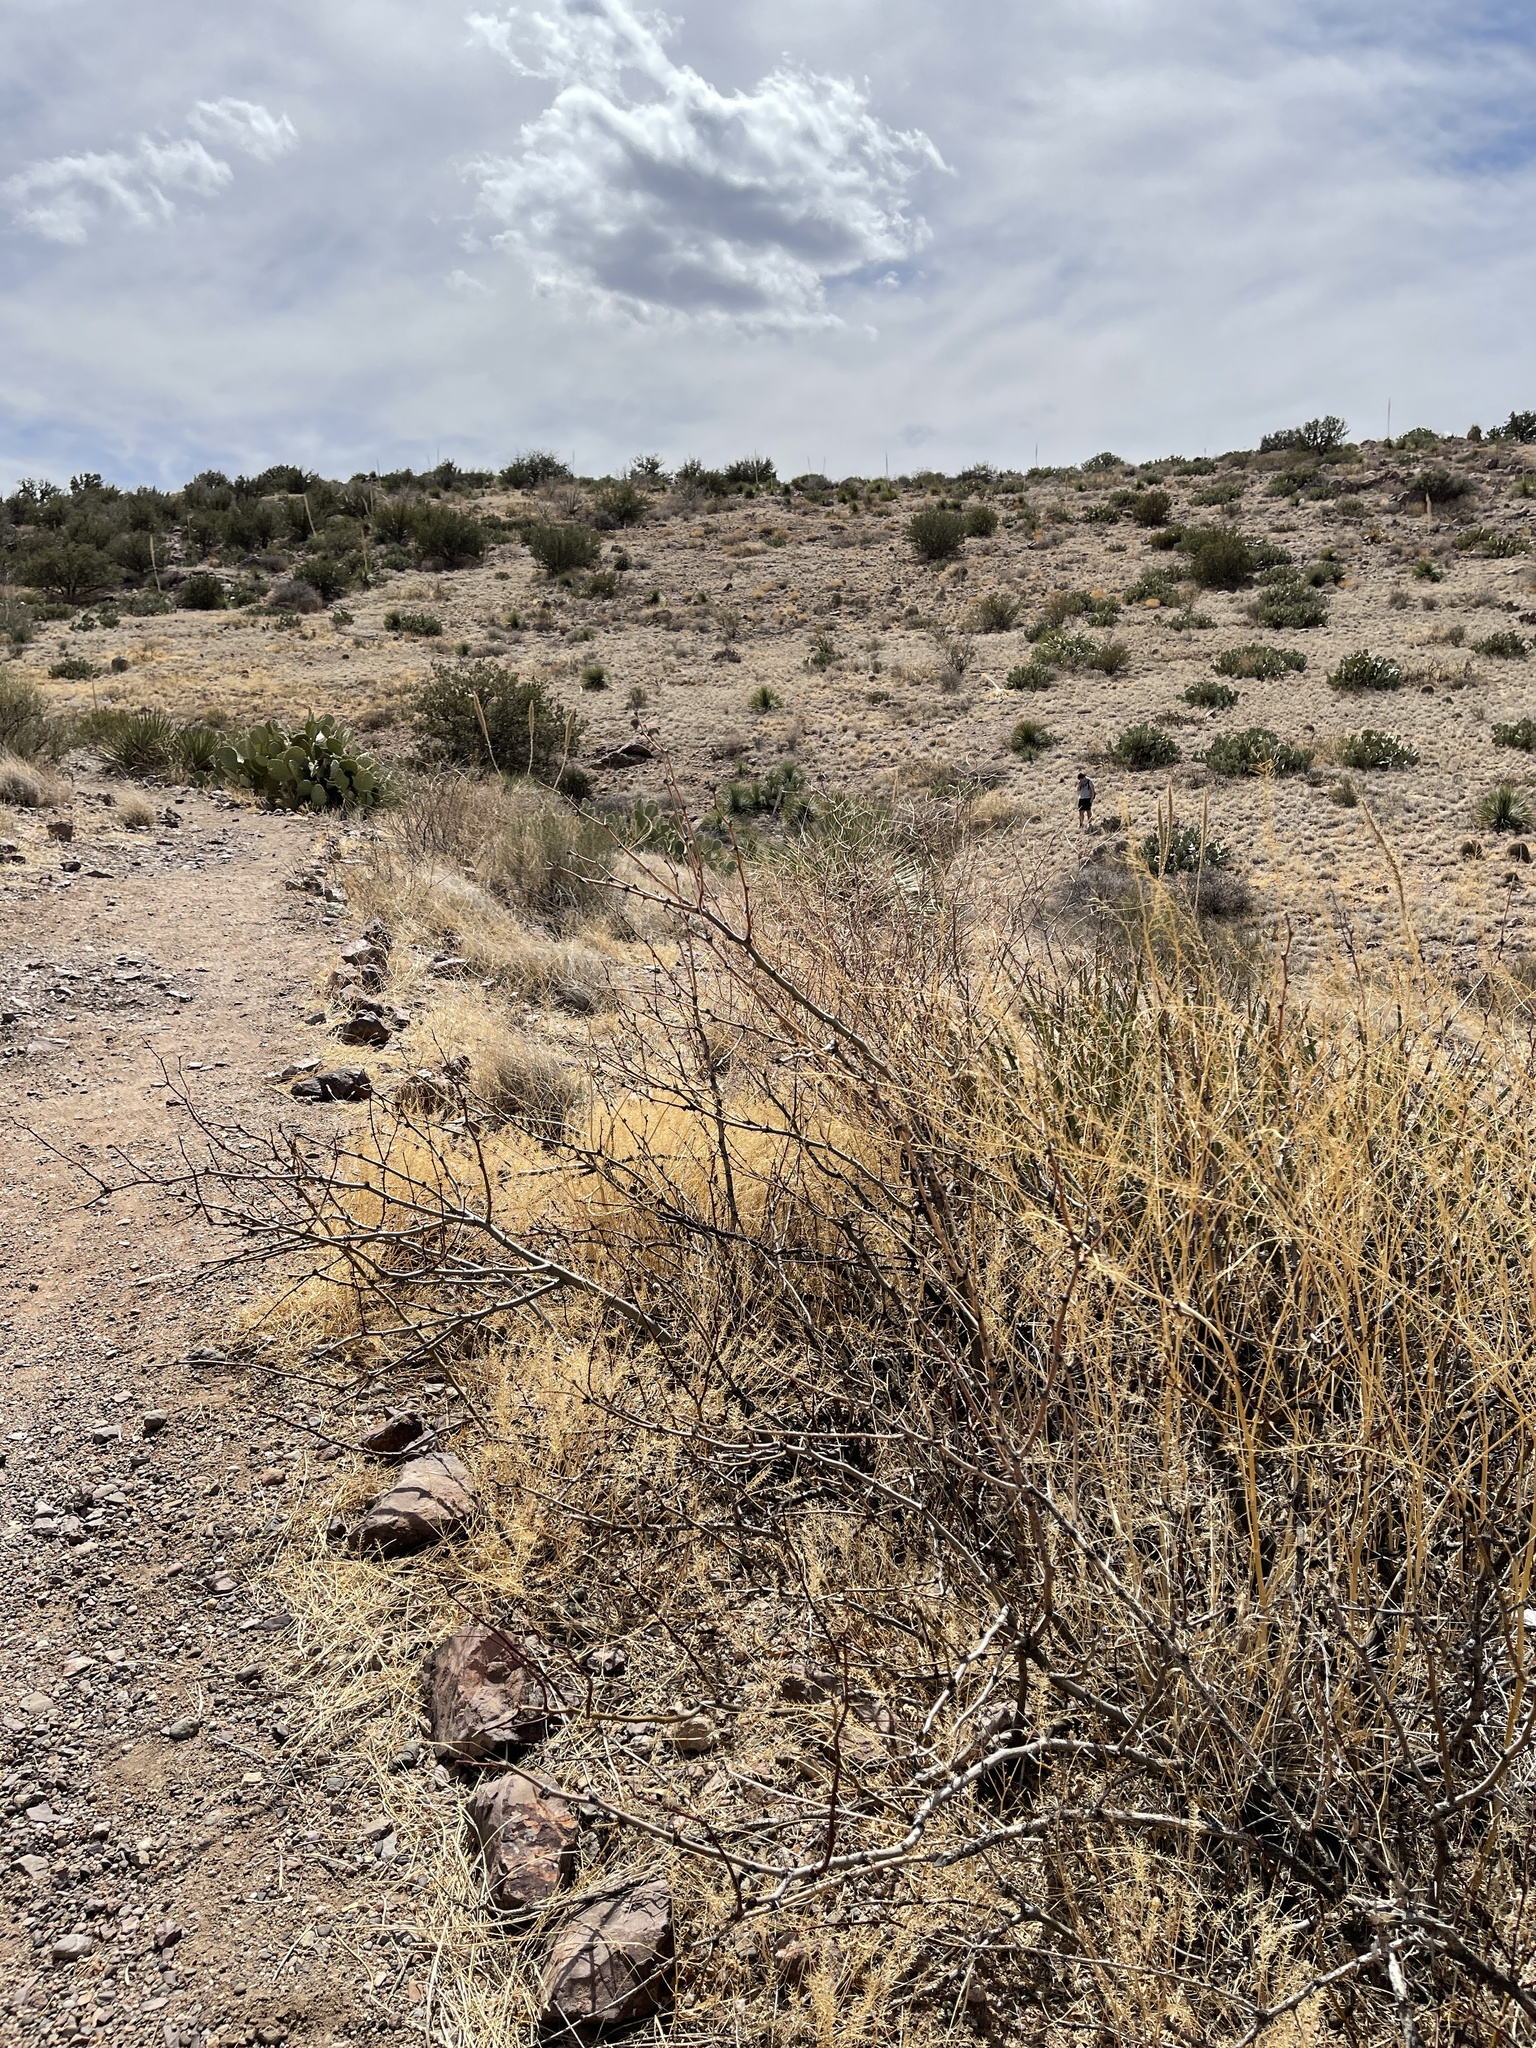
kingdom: Plantae
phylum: Tracheophyta
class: Magnoliopsida
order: Fabales
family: Fabaceae
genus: Prosopis
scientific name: Prosopis glandulosa
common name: Honey mesquite
